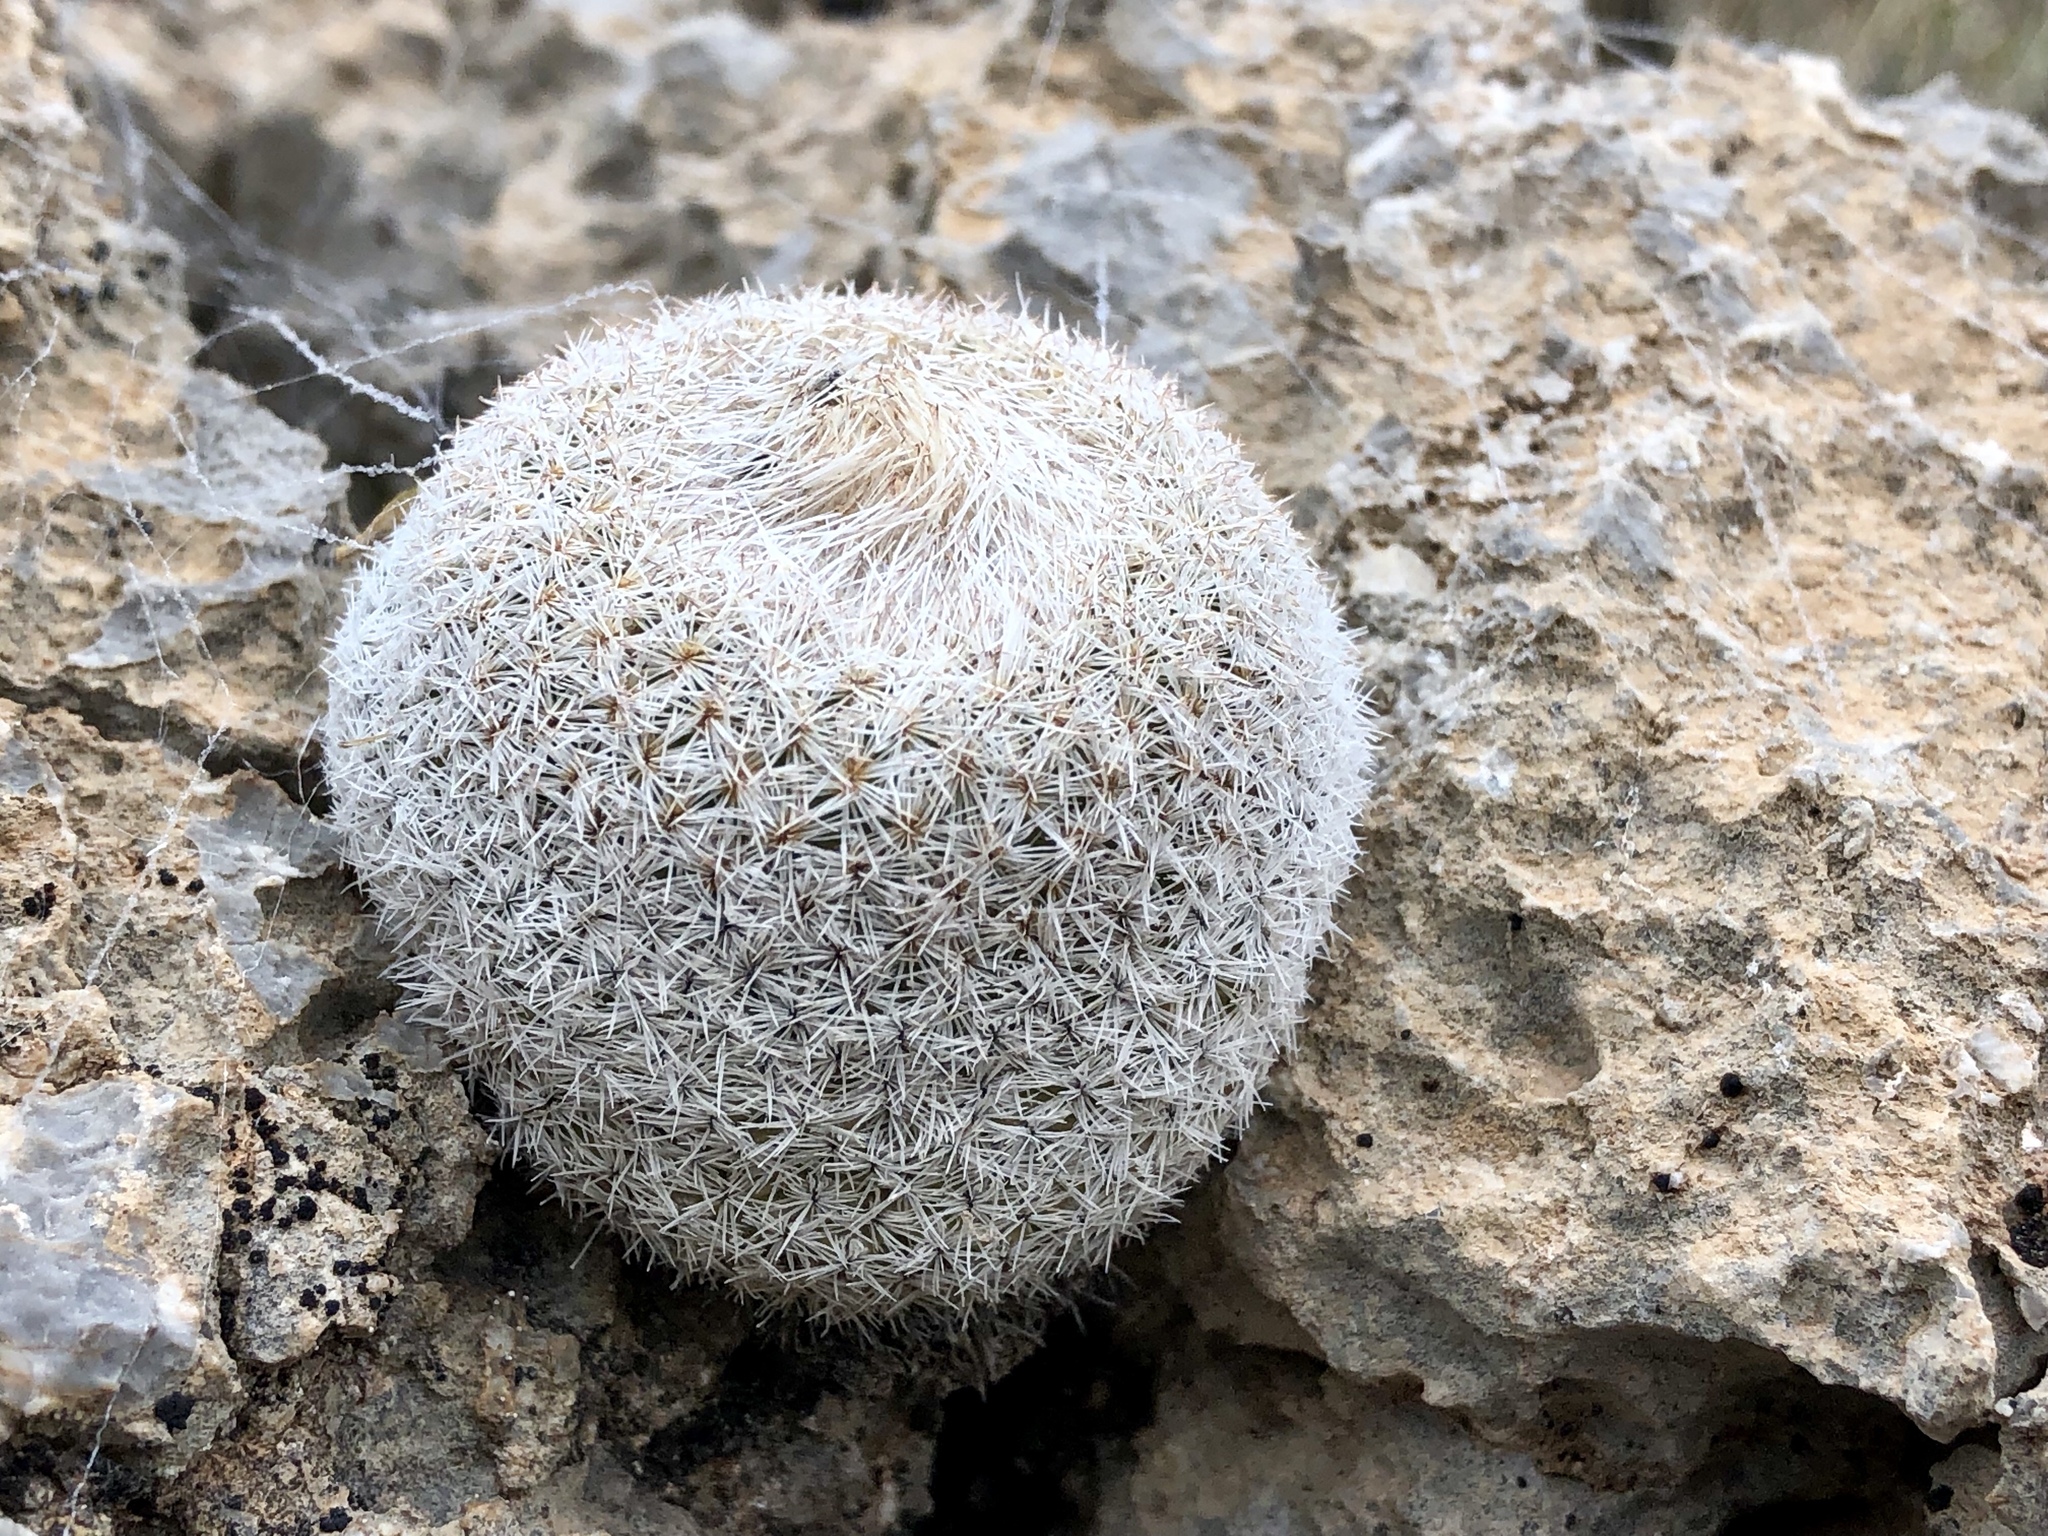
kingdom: Plantae
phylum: Tracheophyta
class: Magnoliopsida
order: Caryophyllales
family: Cactaceae
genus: Epithelantha
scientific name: Epithelantha micromeris
